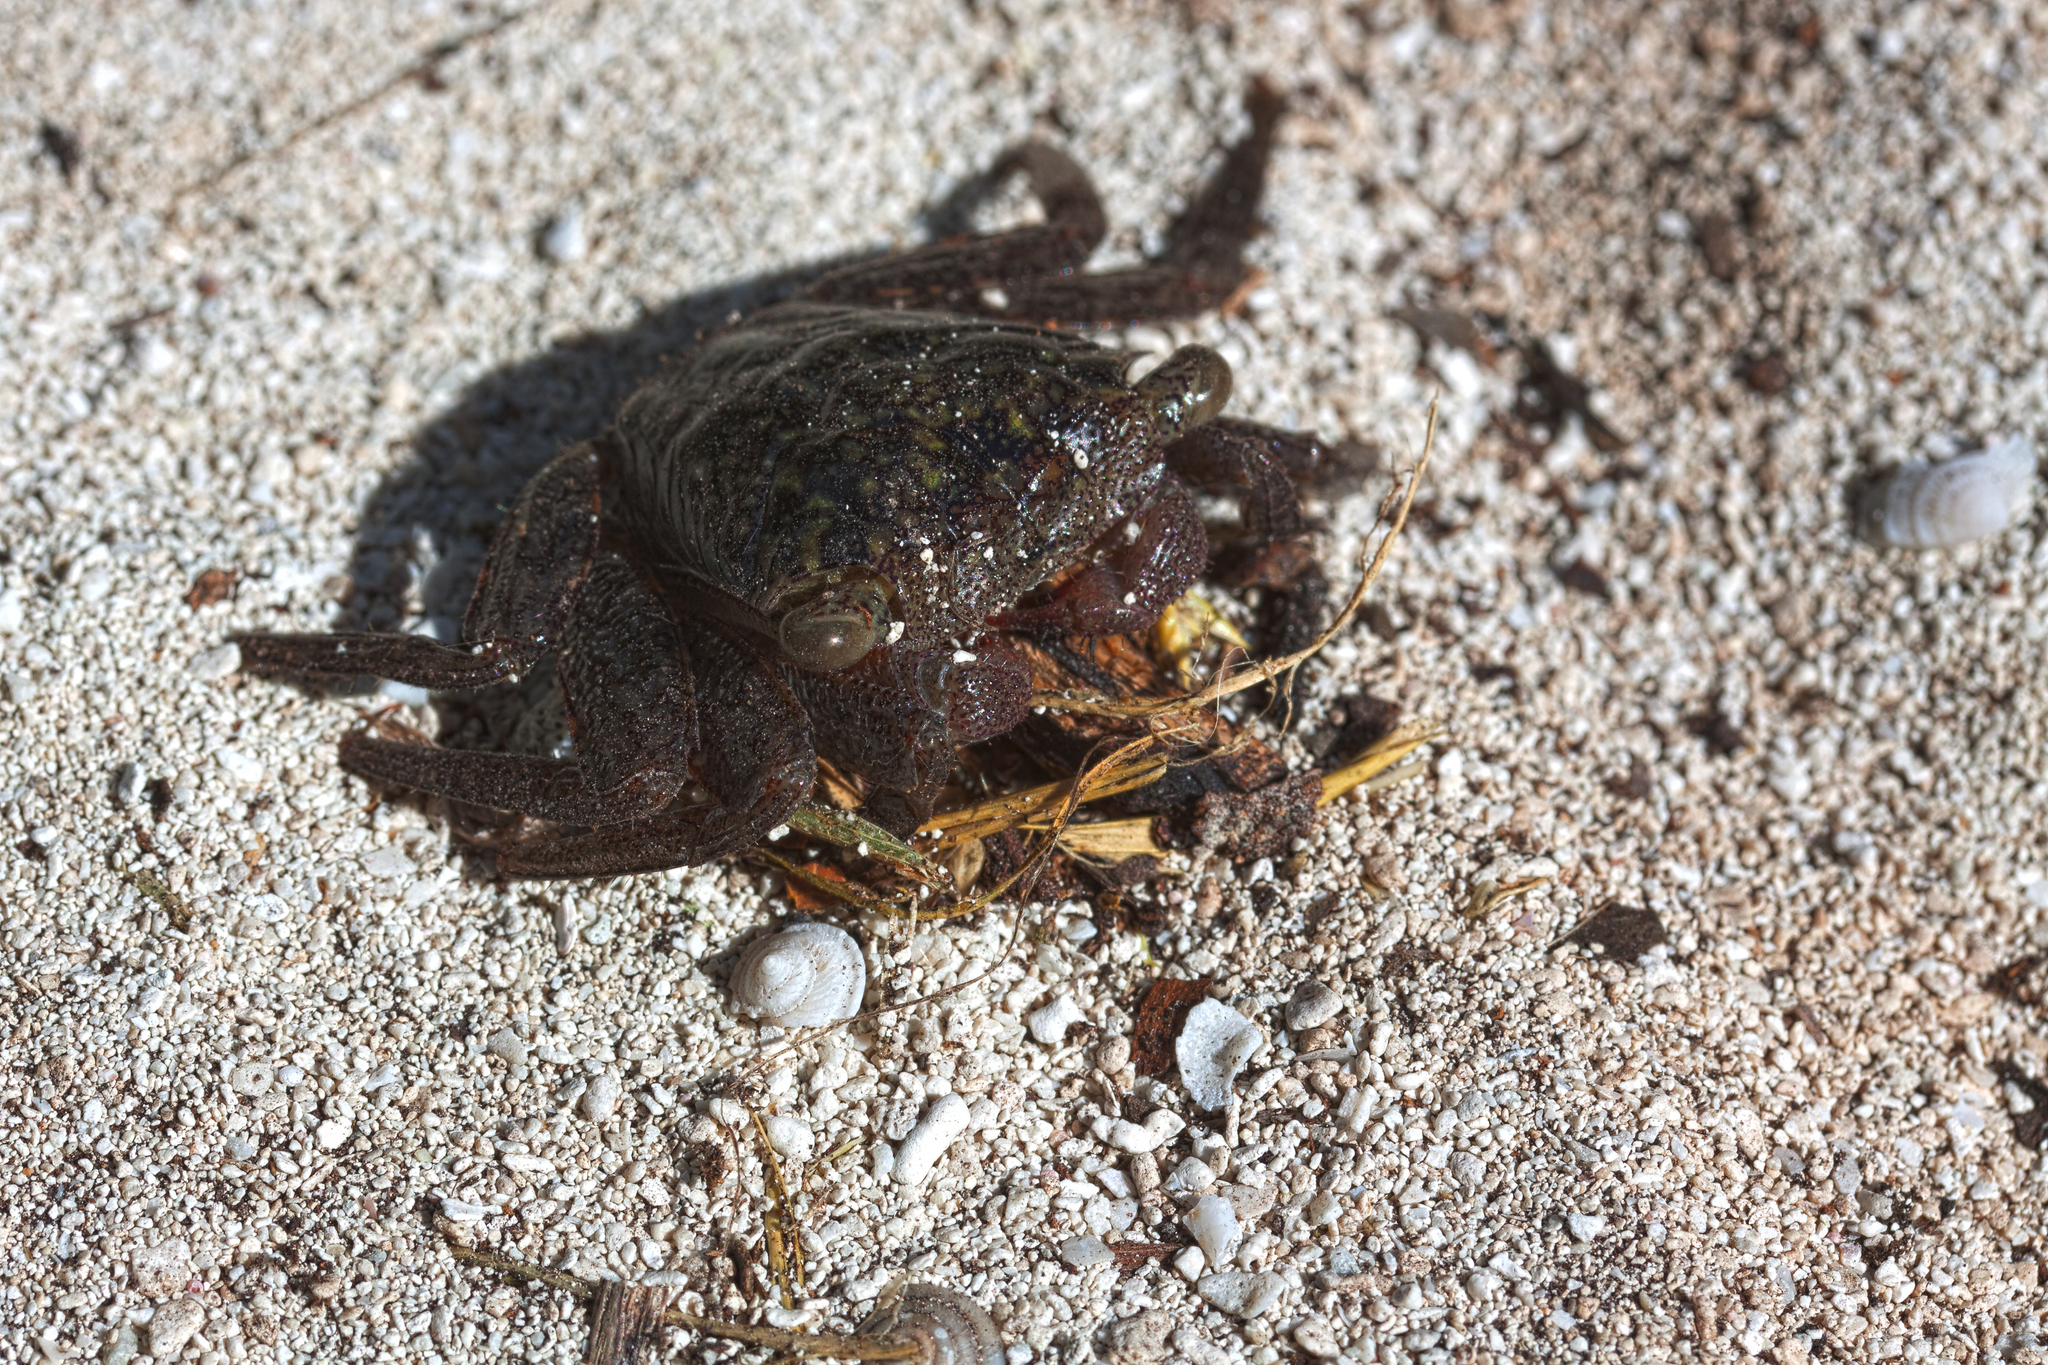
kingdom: Animalia
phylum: Arthropoda
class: Malacostraca
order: Decapoda
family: Sesarmidae
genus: Aratus
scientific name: Aratus pisonii
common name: Mangrove crab
